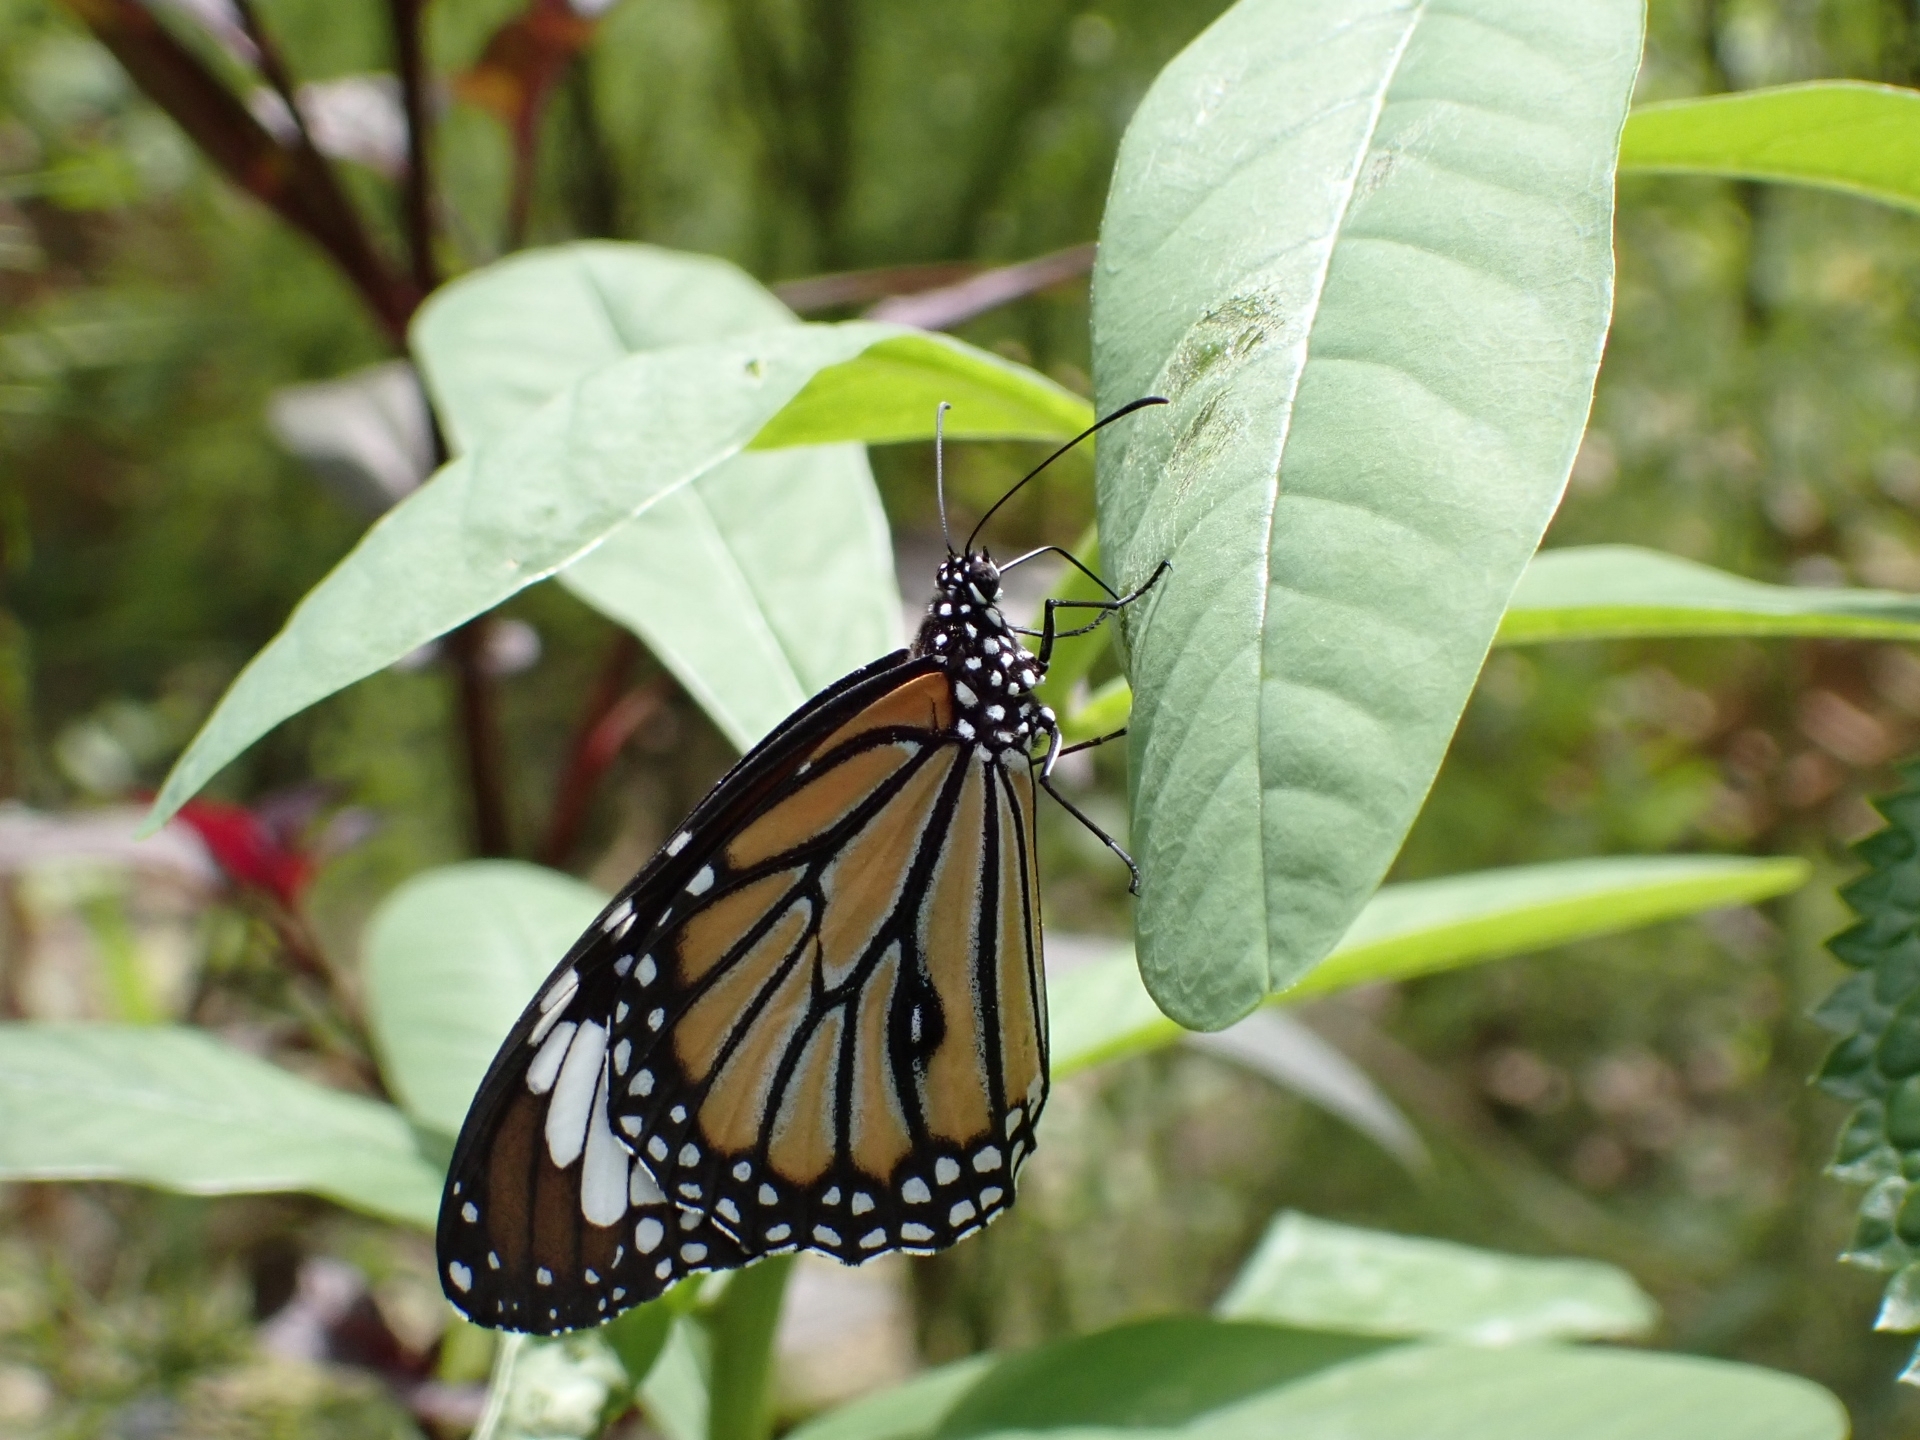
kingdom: Animalia
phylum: Arthropoda
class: Insecta
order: Lepidoptera
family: Nymphalidae
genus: Danaus
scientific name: Danaus genutia
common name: Common tiger butterfly
